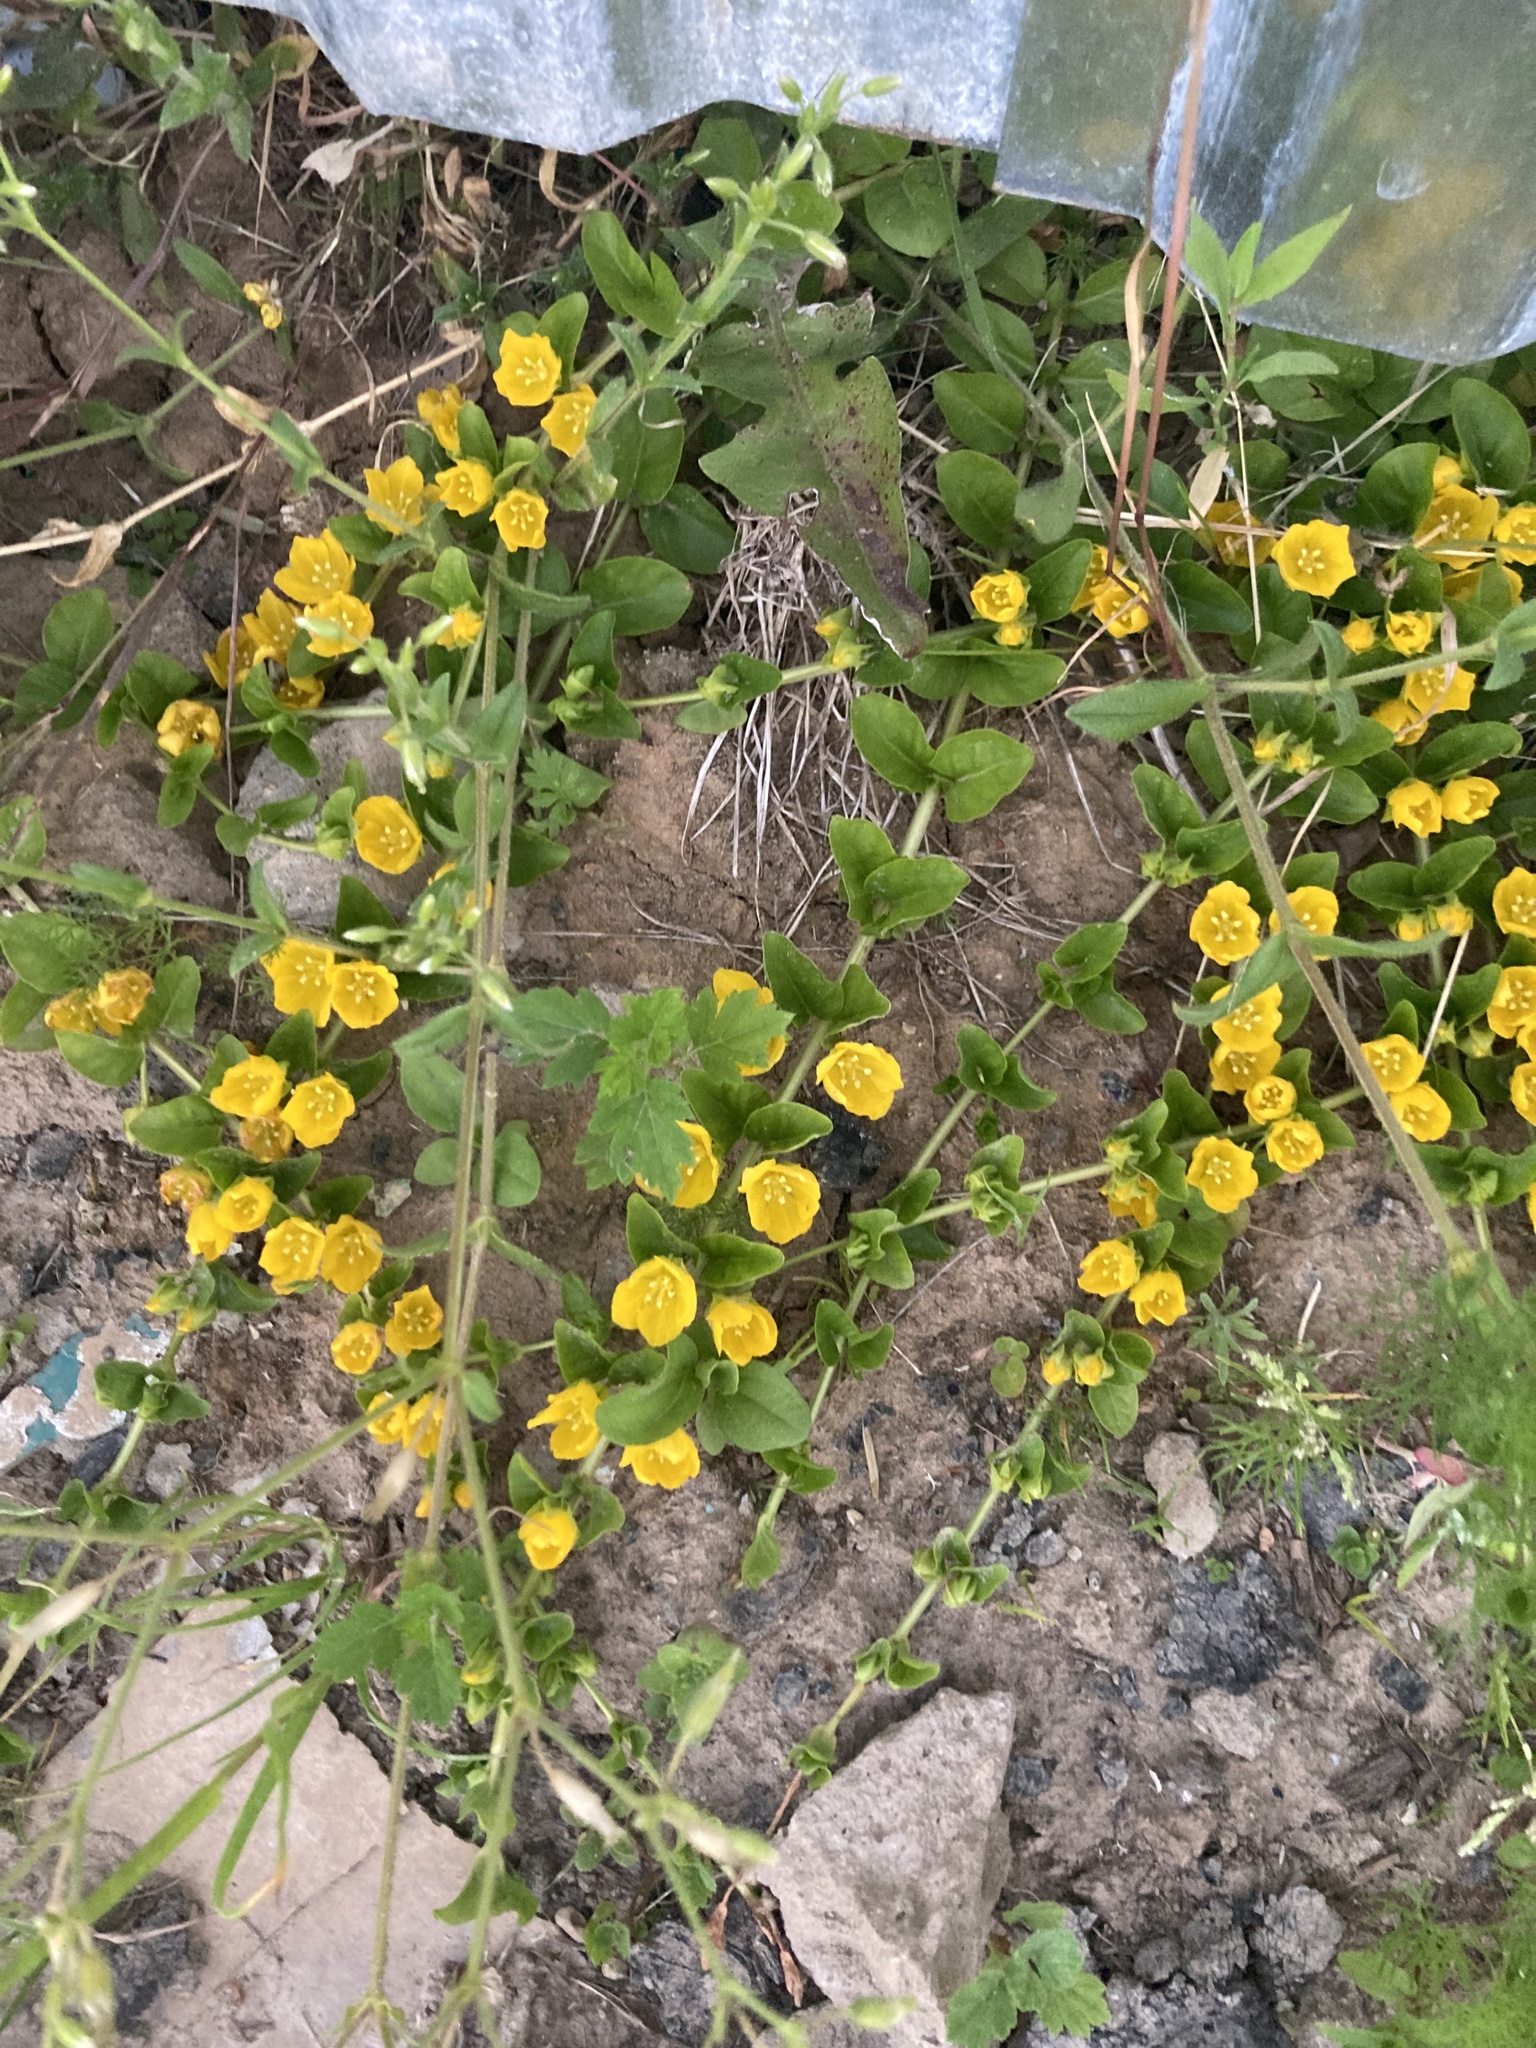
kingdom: Plantae
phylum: Tracheophyta
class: Magnoliopsida
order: Ericales
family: Primulaceae
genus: Lysimachia
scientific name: Lysimachia nummularia
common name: Moneywort
